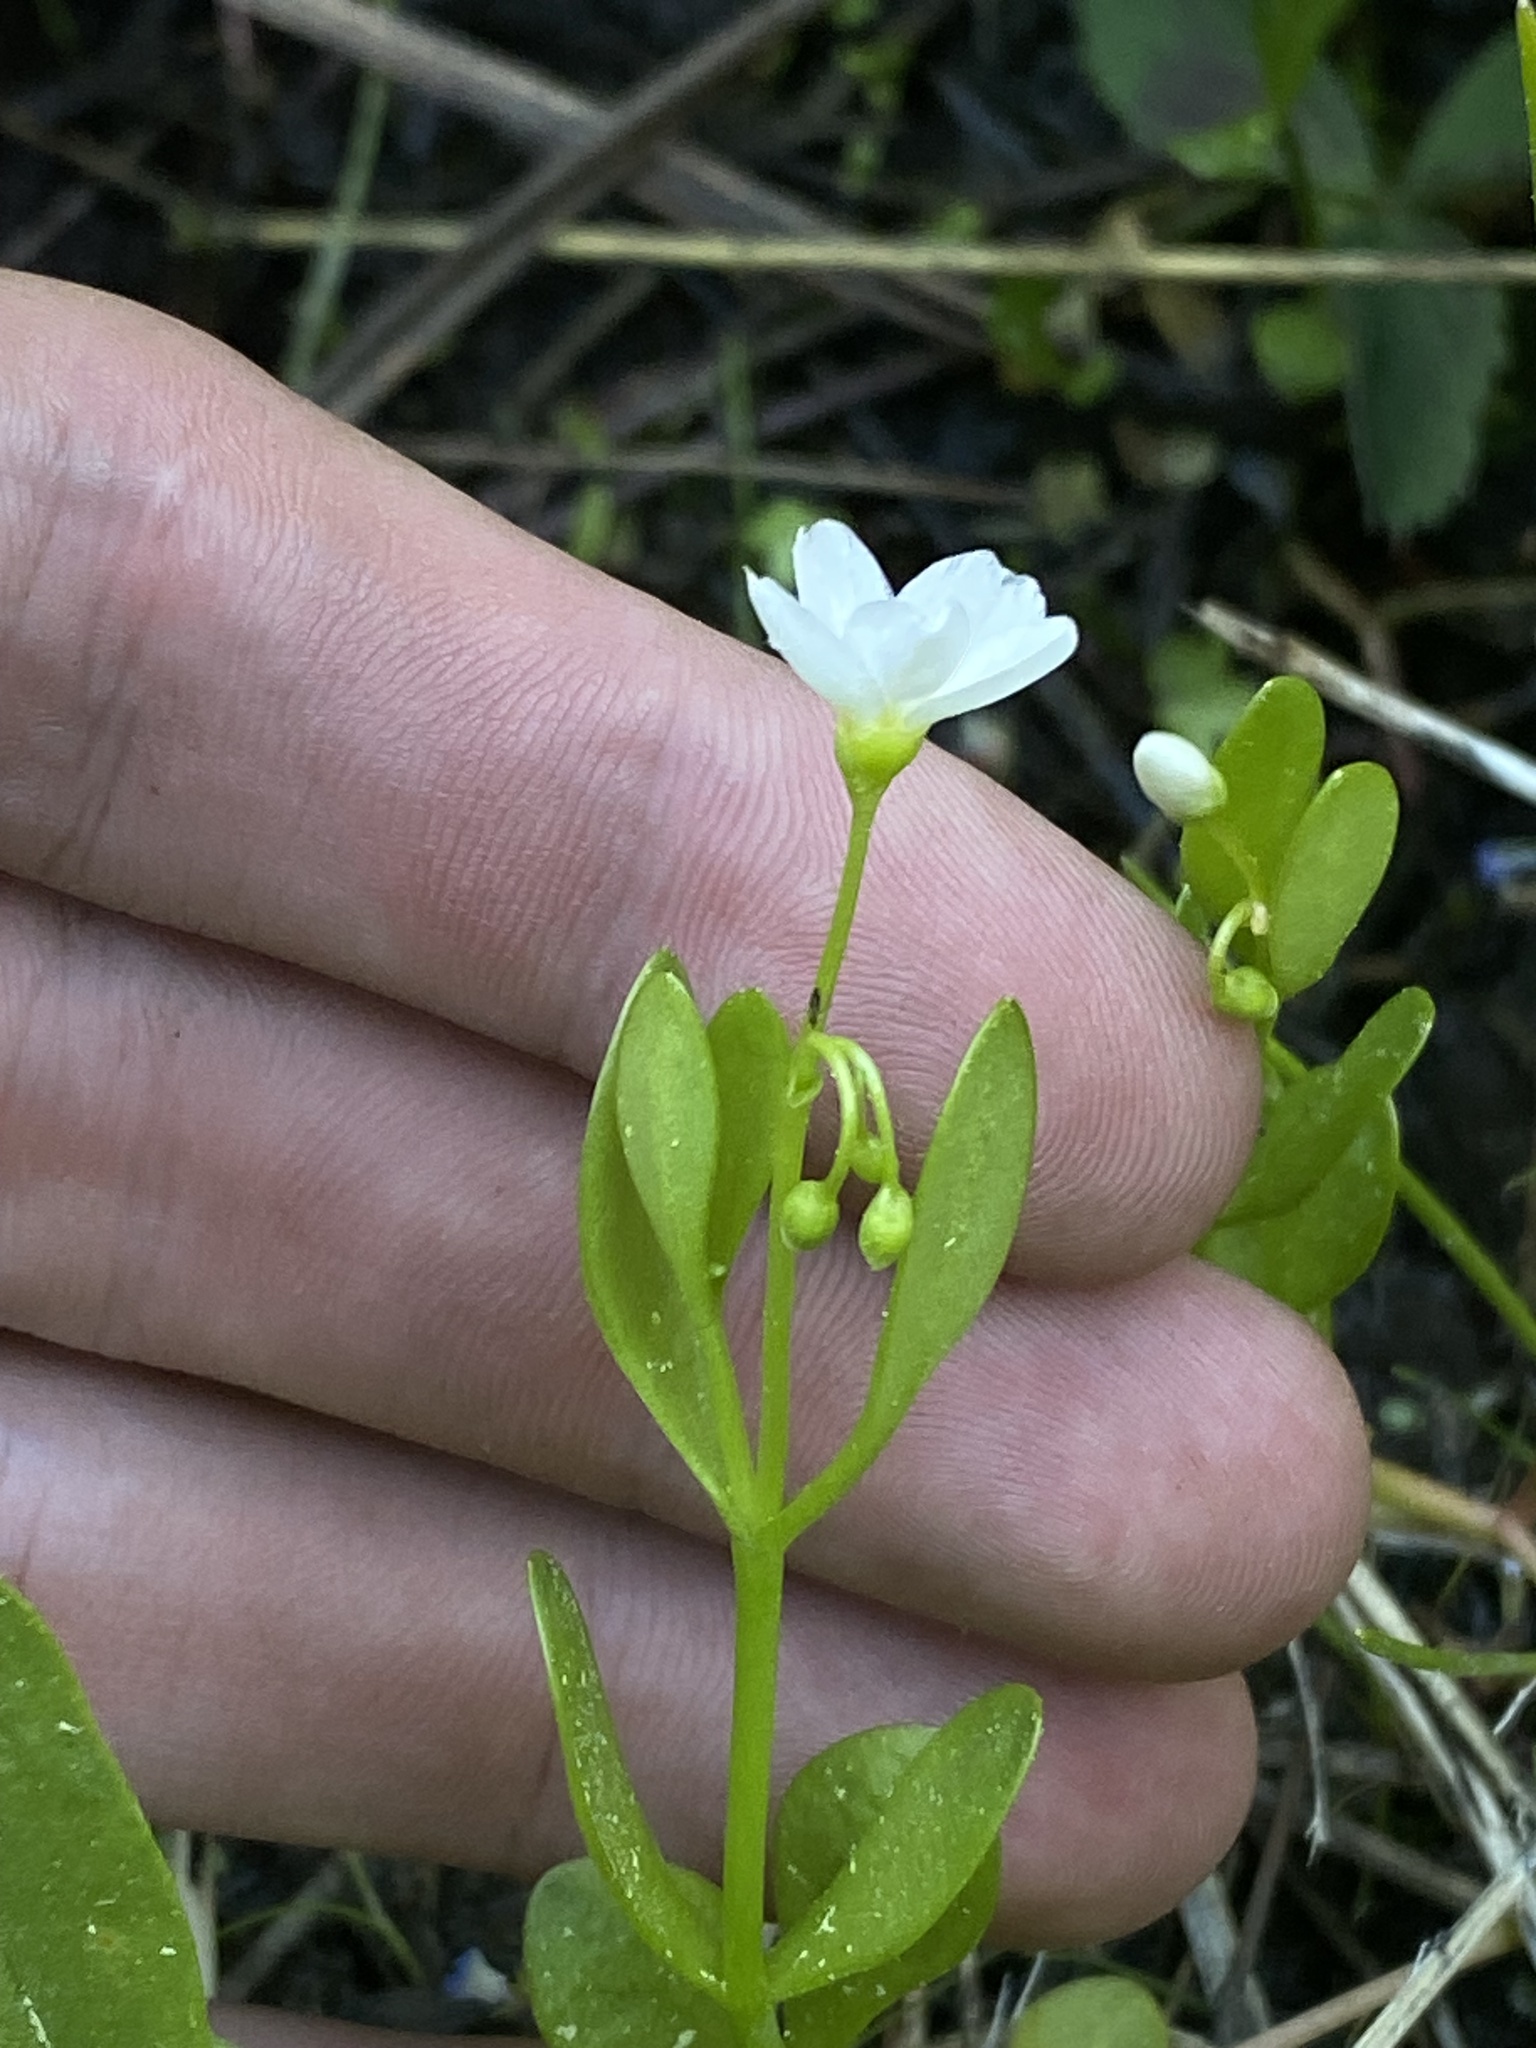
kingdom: Plantae
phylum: Tracheophyta
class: Magnoliopsida
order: Caryophyllales
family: Montiaceae
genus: Montia
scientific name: Montia chamissoi
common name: Chamisso's candyflower
